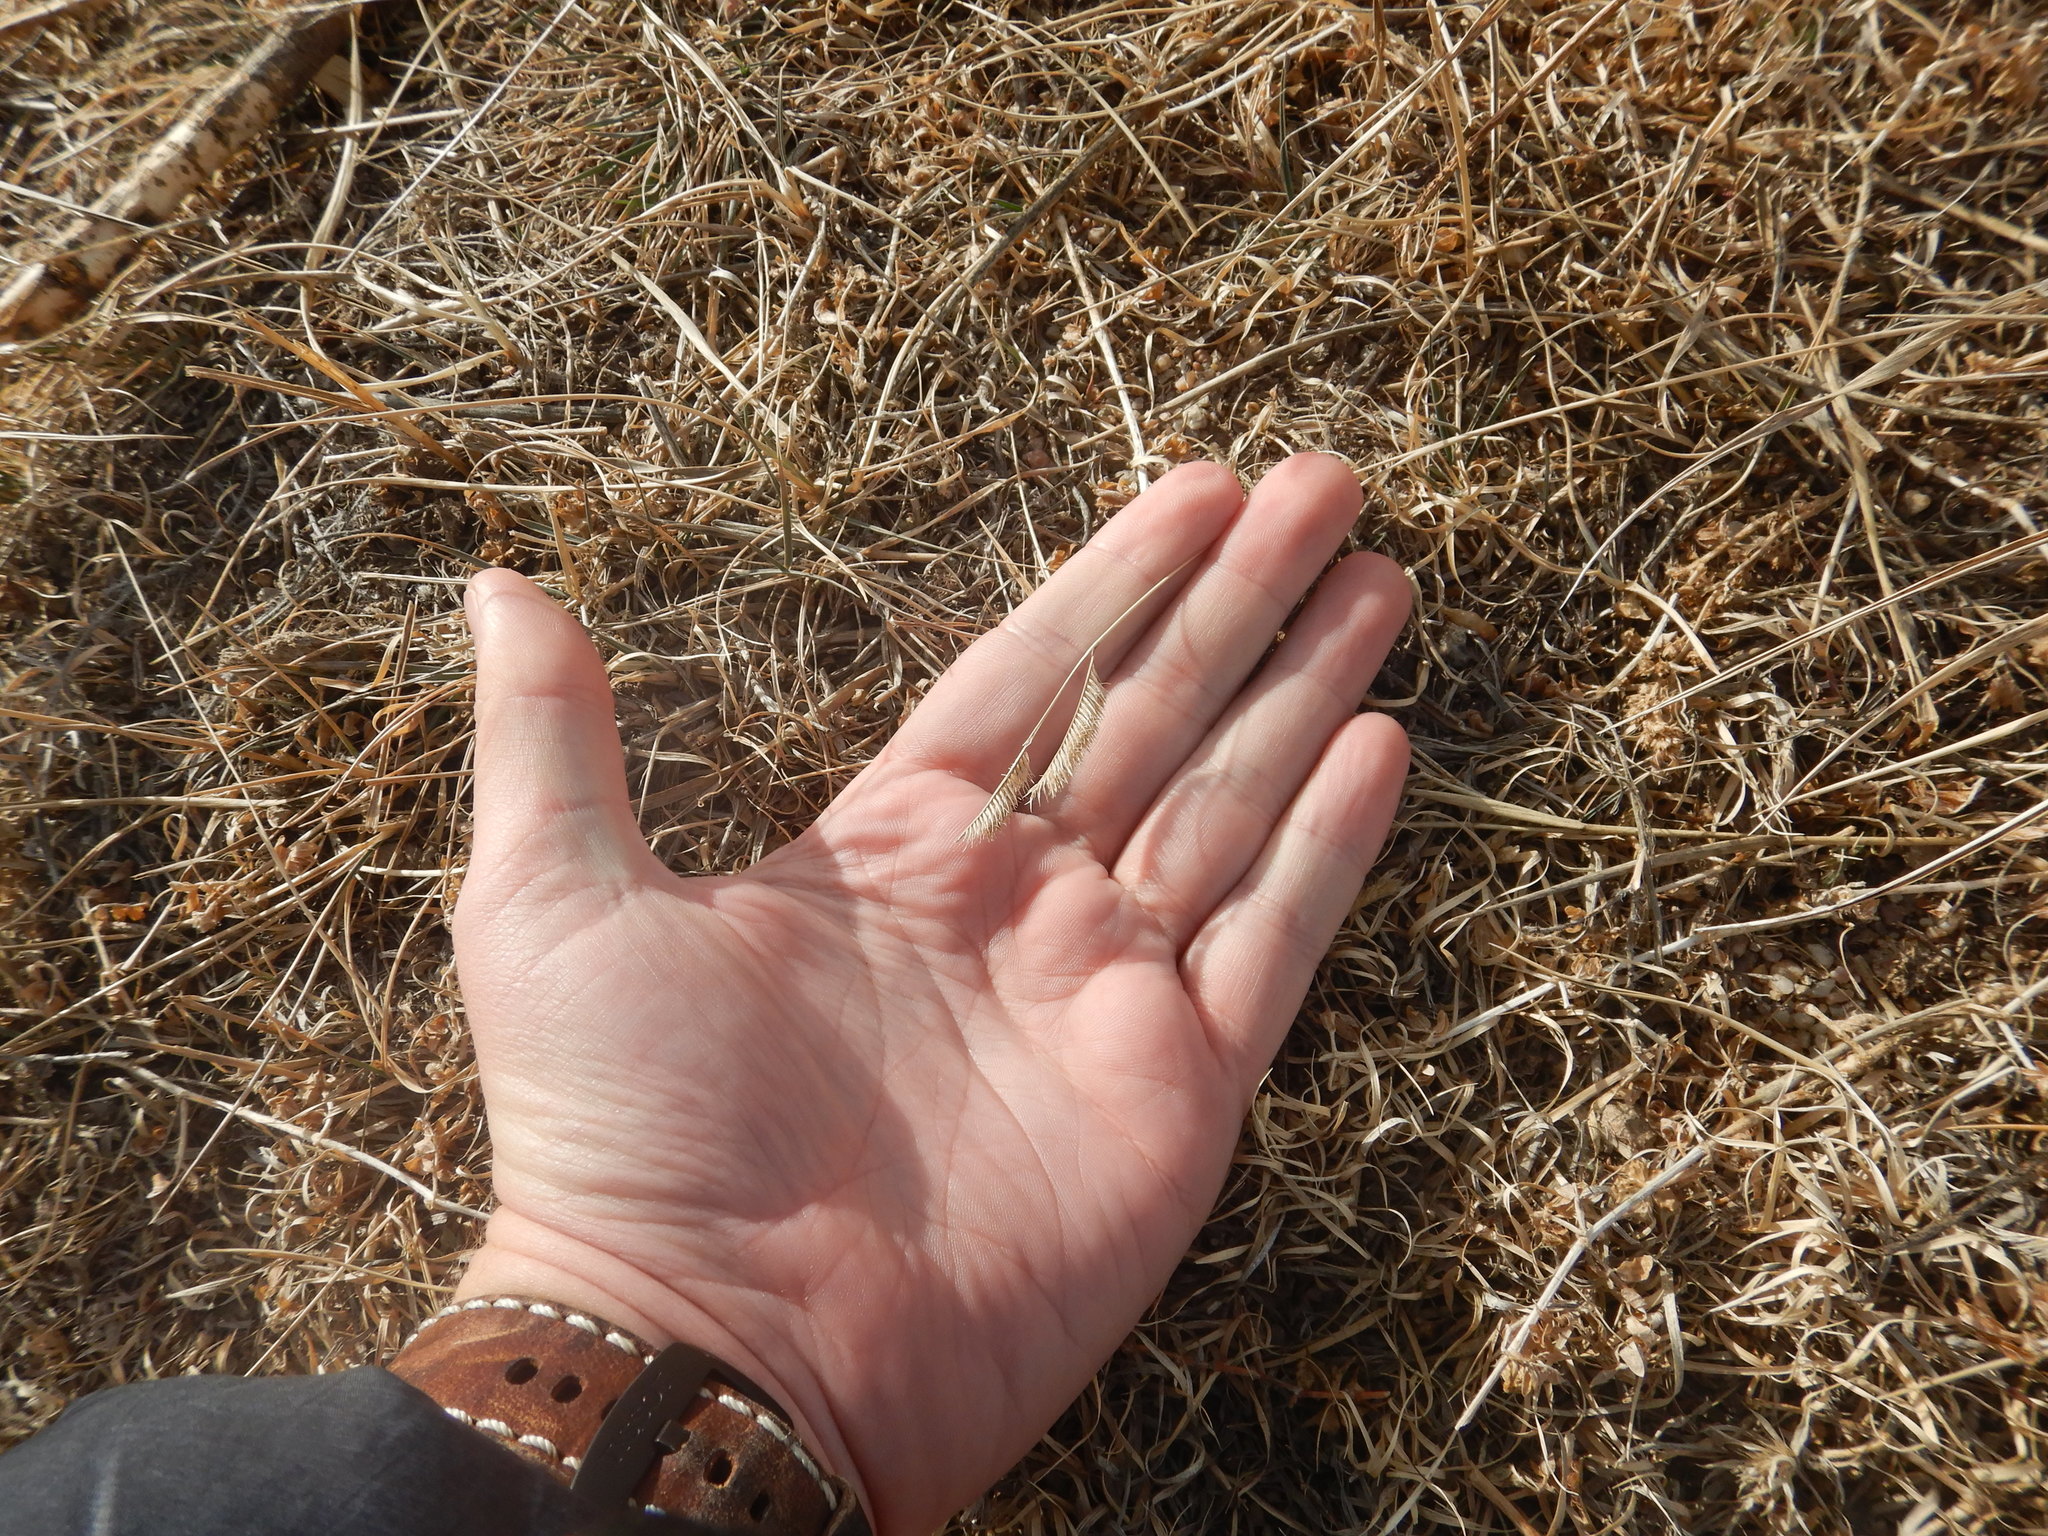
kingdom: Plantae
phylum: Tracheophyta
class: Liliopsida
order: Poales
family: Poaceae
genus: Bouteloua
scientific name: Bouteloua gracilis
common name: Blue grama
